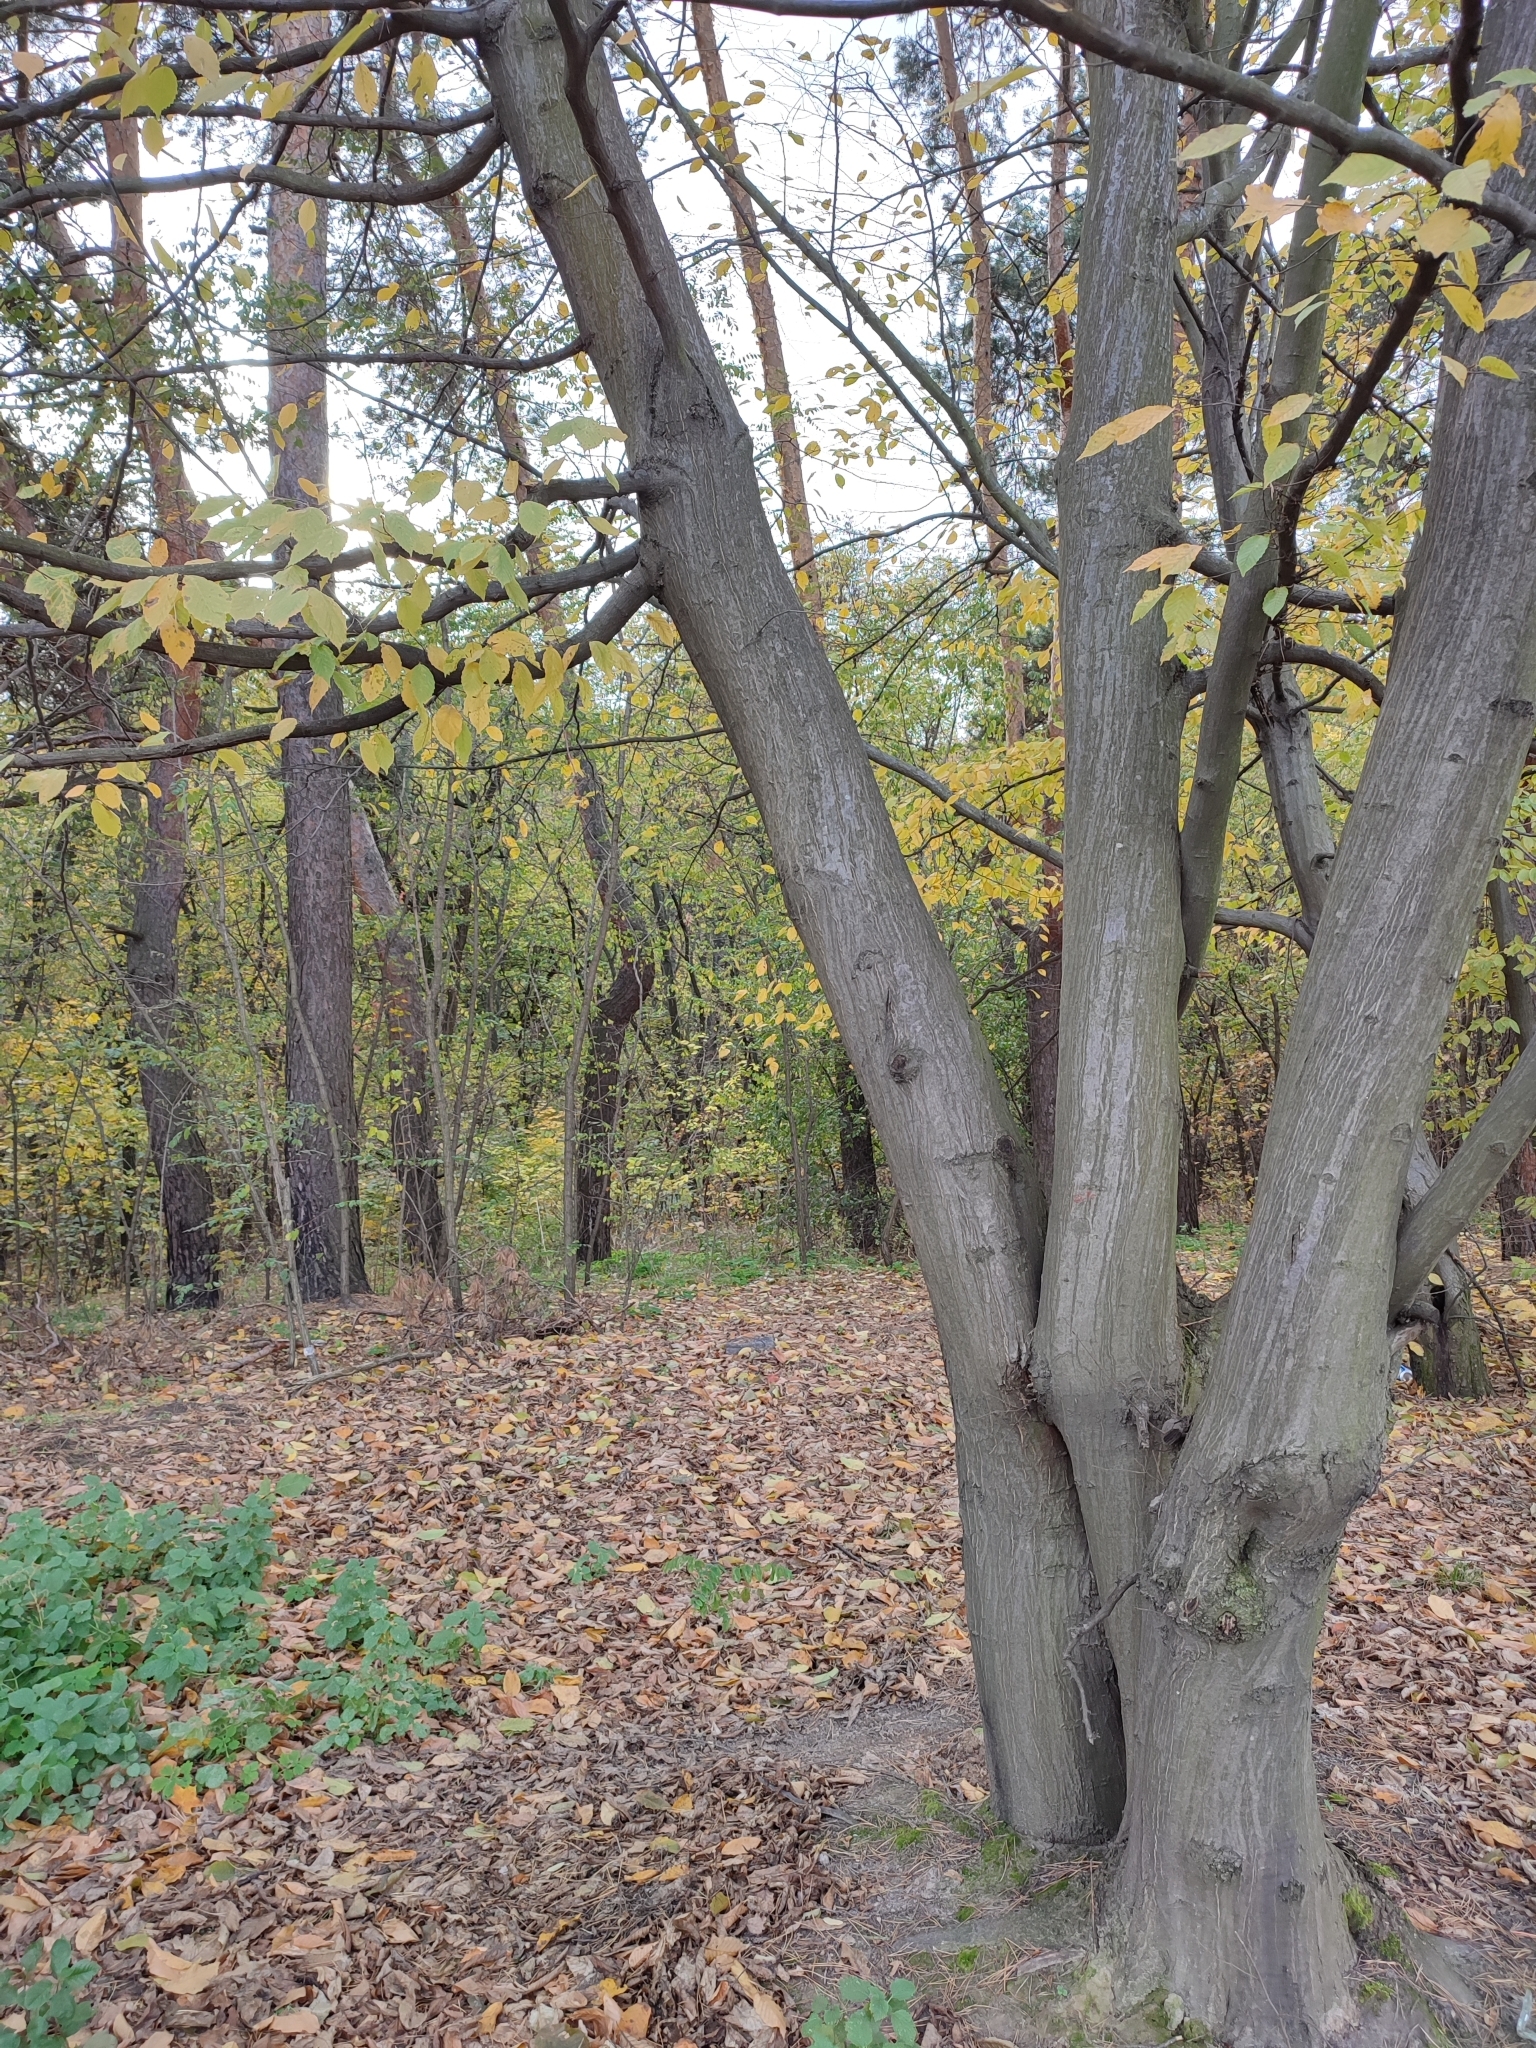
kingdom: Plantae
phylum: Tracheophyta
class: Magnoliopsida
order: Fagales
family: Betulaceae
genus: Carpinus
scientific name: Carpinus betulus
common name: Hornbeam
